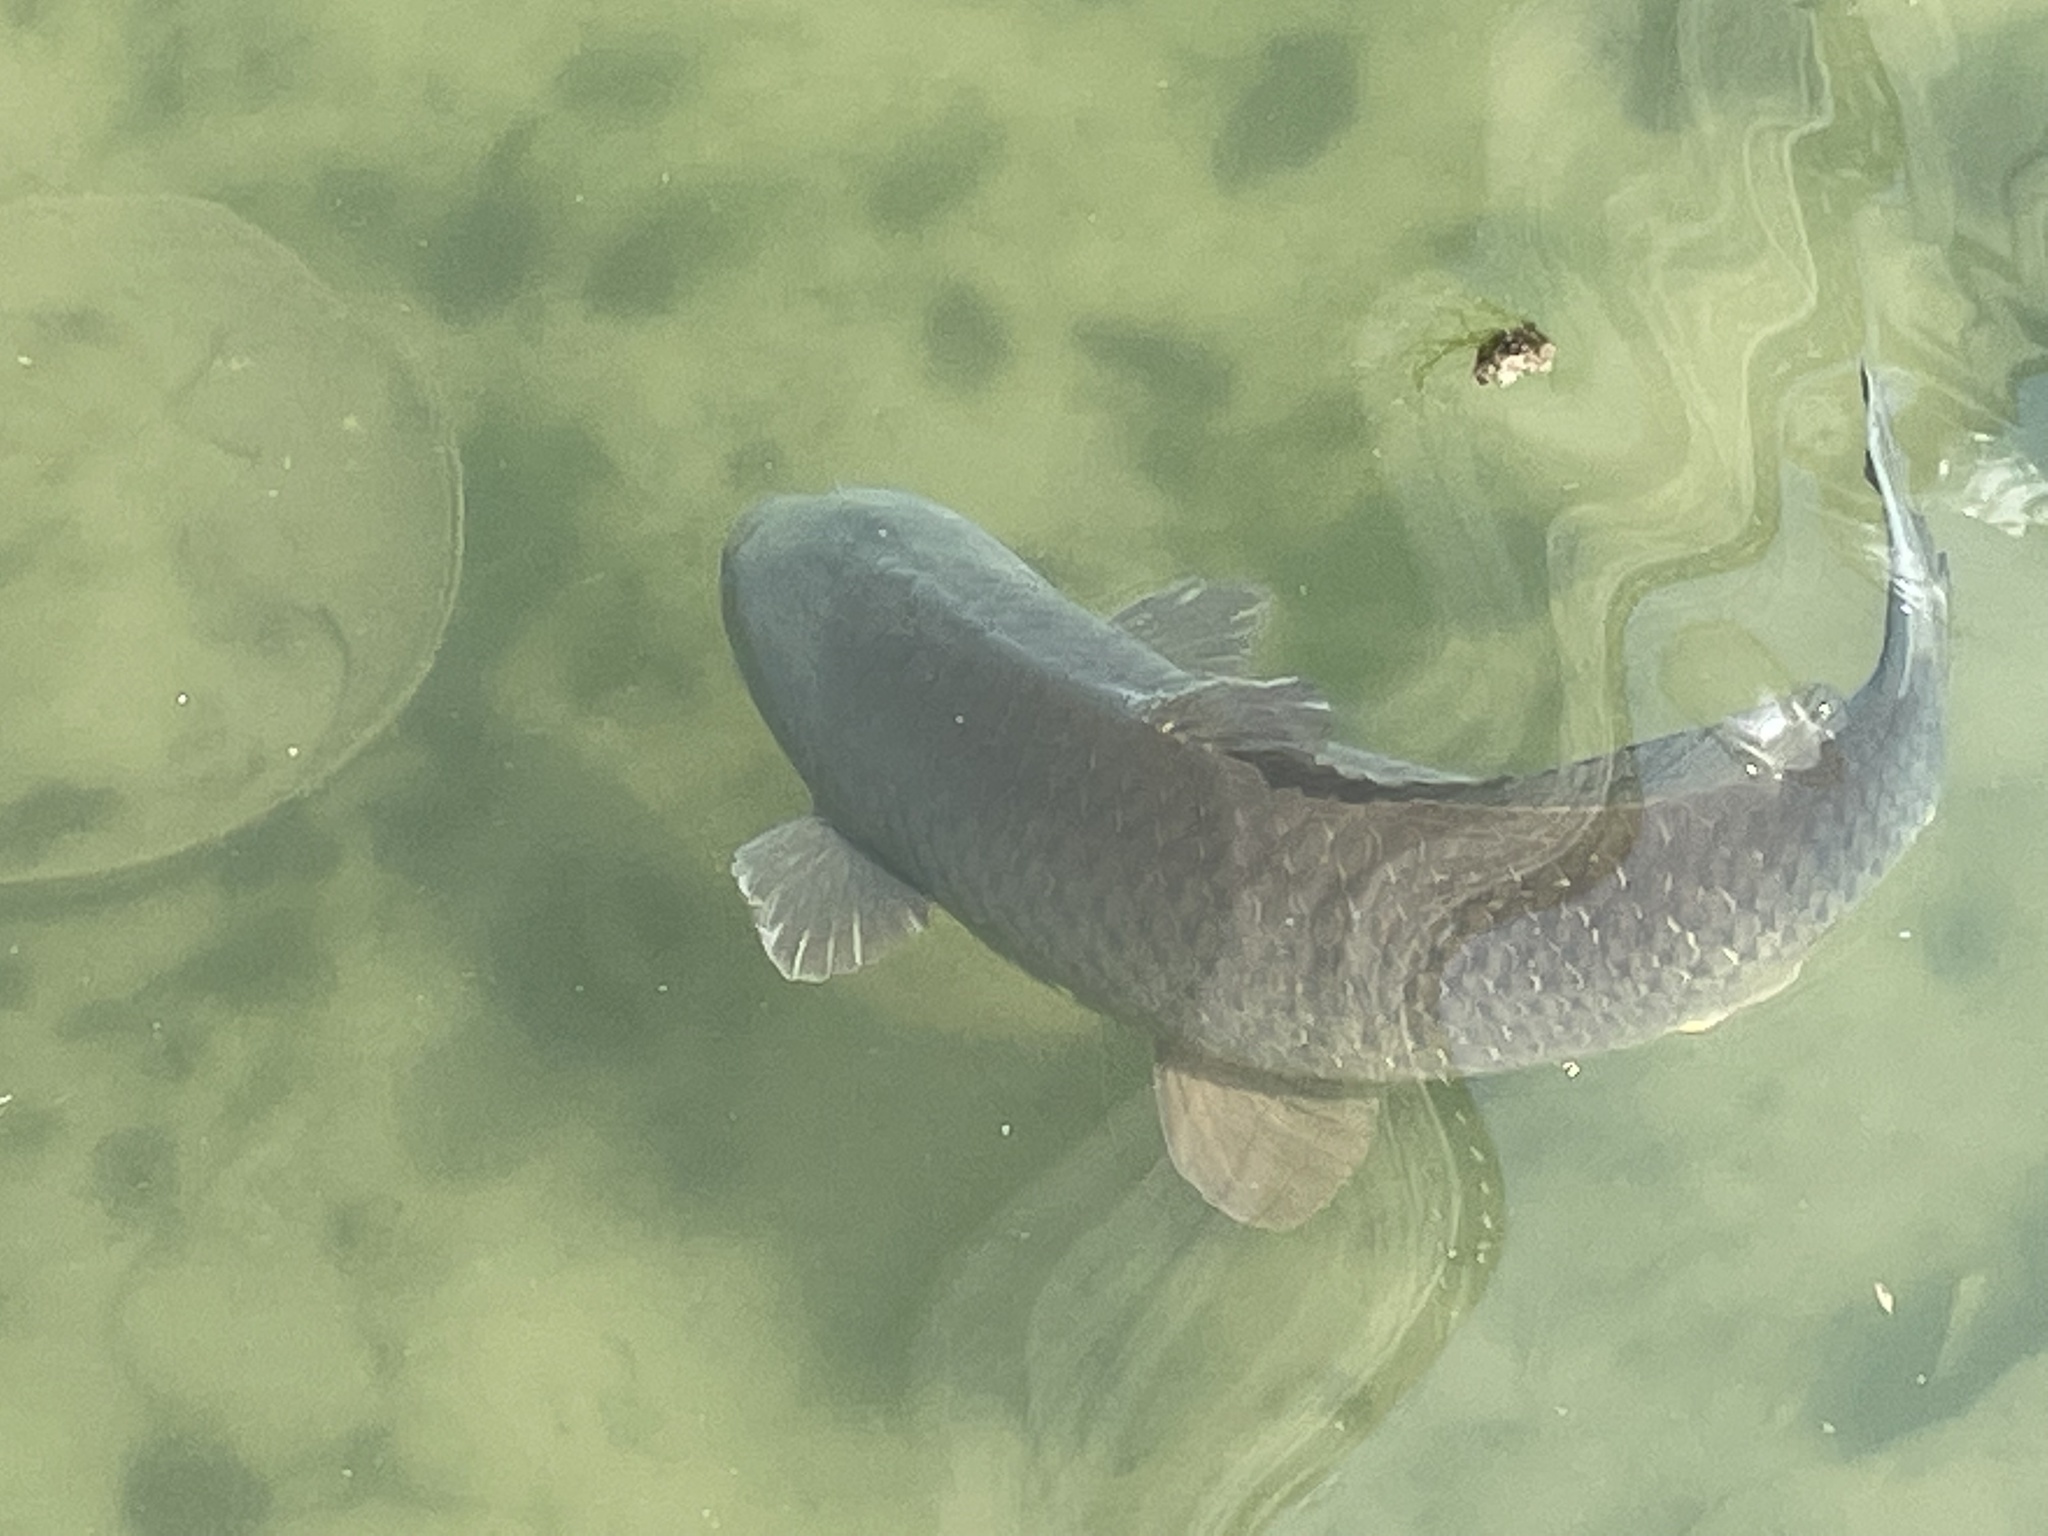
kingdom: Animalia
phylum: Chordata
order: Cypriniformes
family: Cyprinidae
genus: Cyprinus
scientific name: Cyprinus carpio
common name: Common carp
